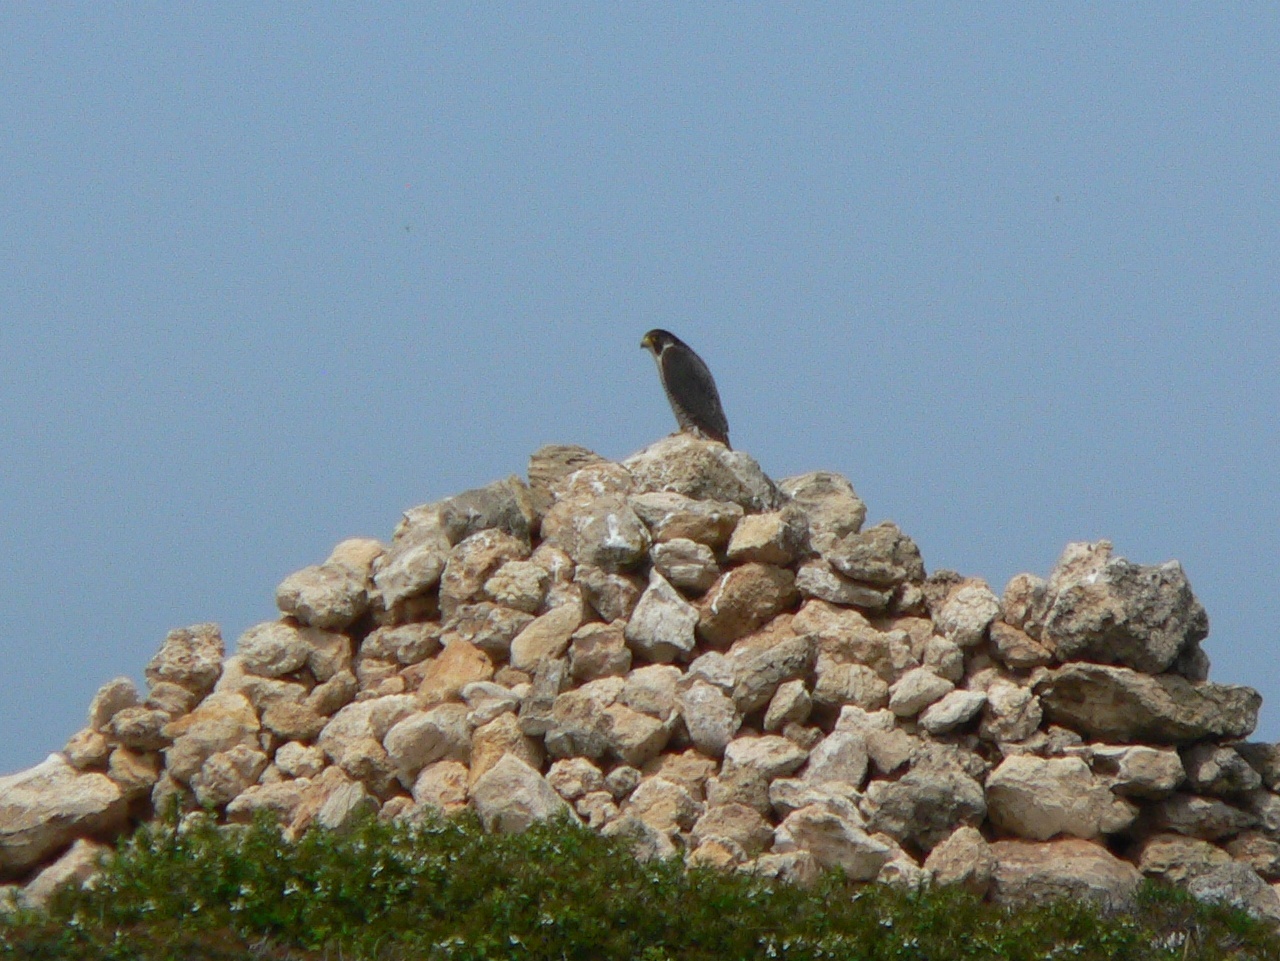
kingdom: Animalia
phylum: Chordata
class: Aves
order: Falconiformes
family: Falconidae
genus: Falco
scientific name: Falco peregrinus
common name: Peregrine falcon
